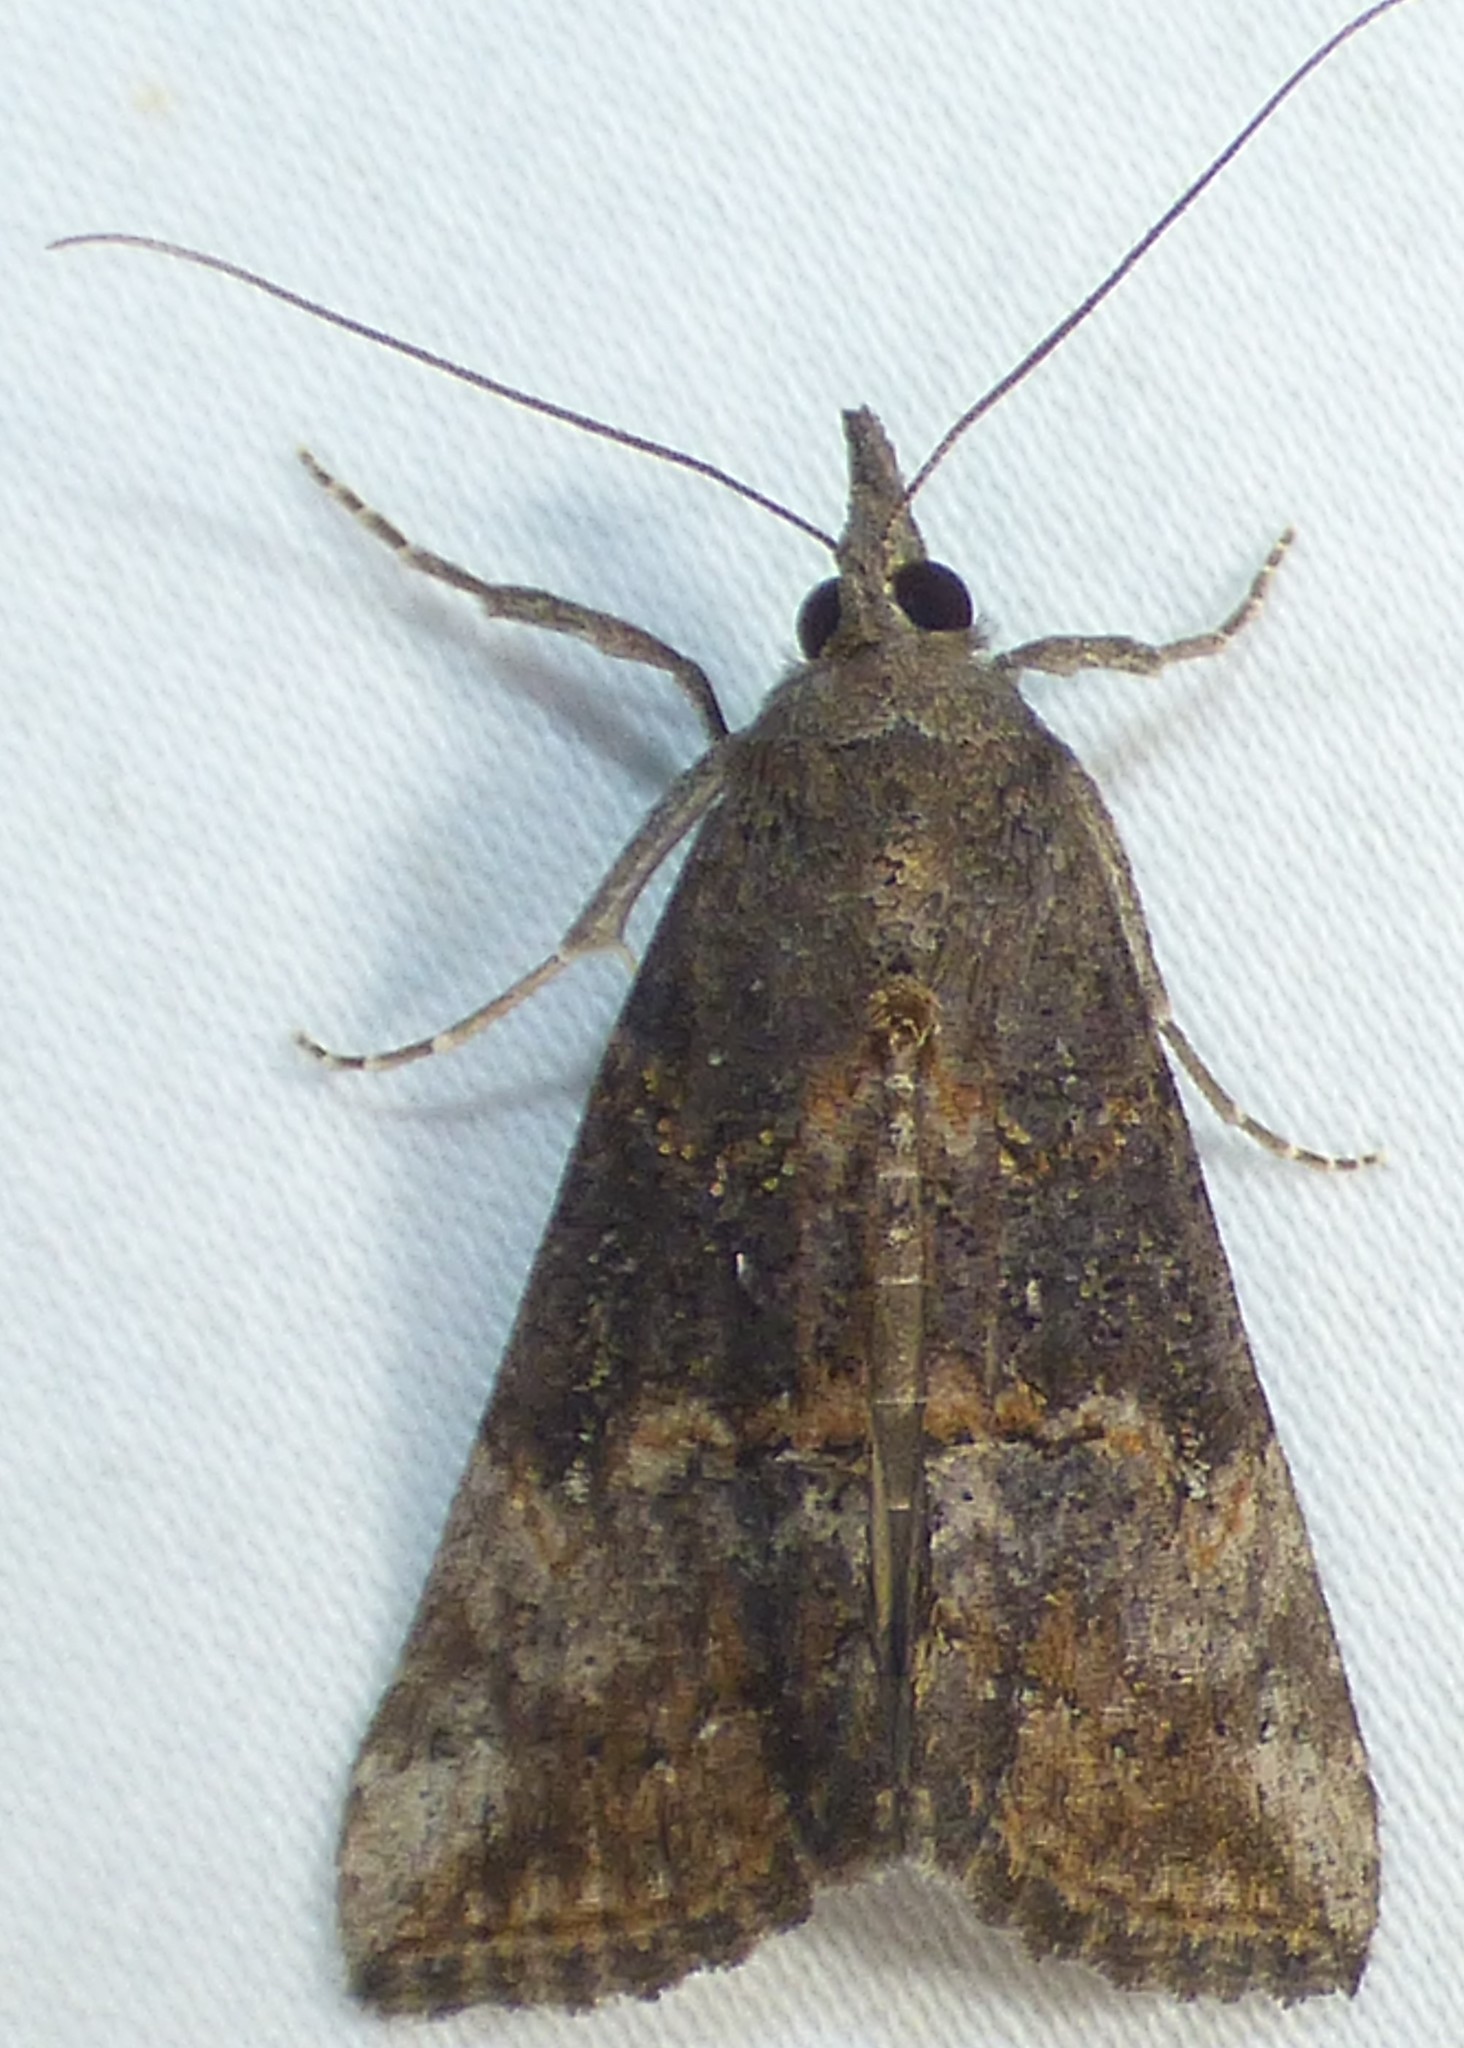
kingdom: Animalia
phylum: Arthropoda
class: Insecta
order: Lepidoptera
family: Erebidae
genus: Hypena
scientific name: Hypena scabra
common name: Green cloverworm
